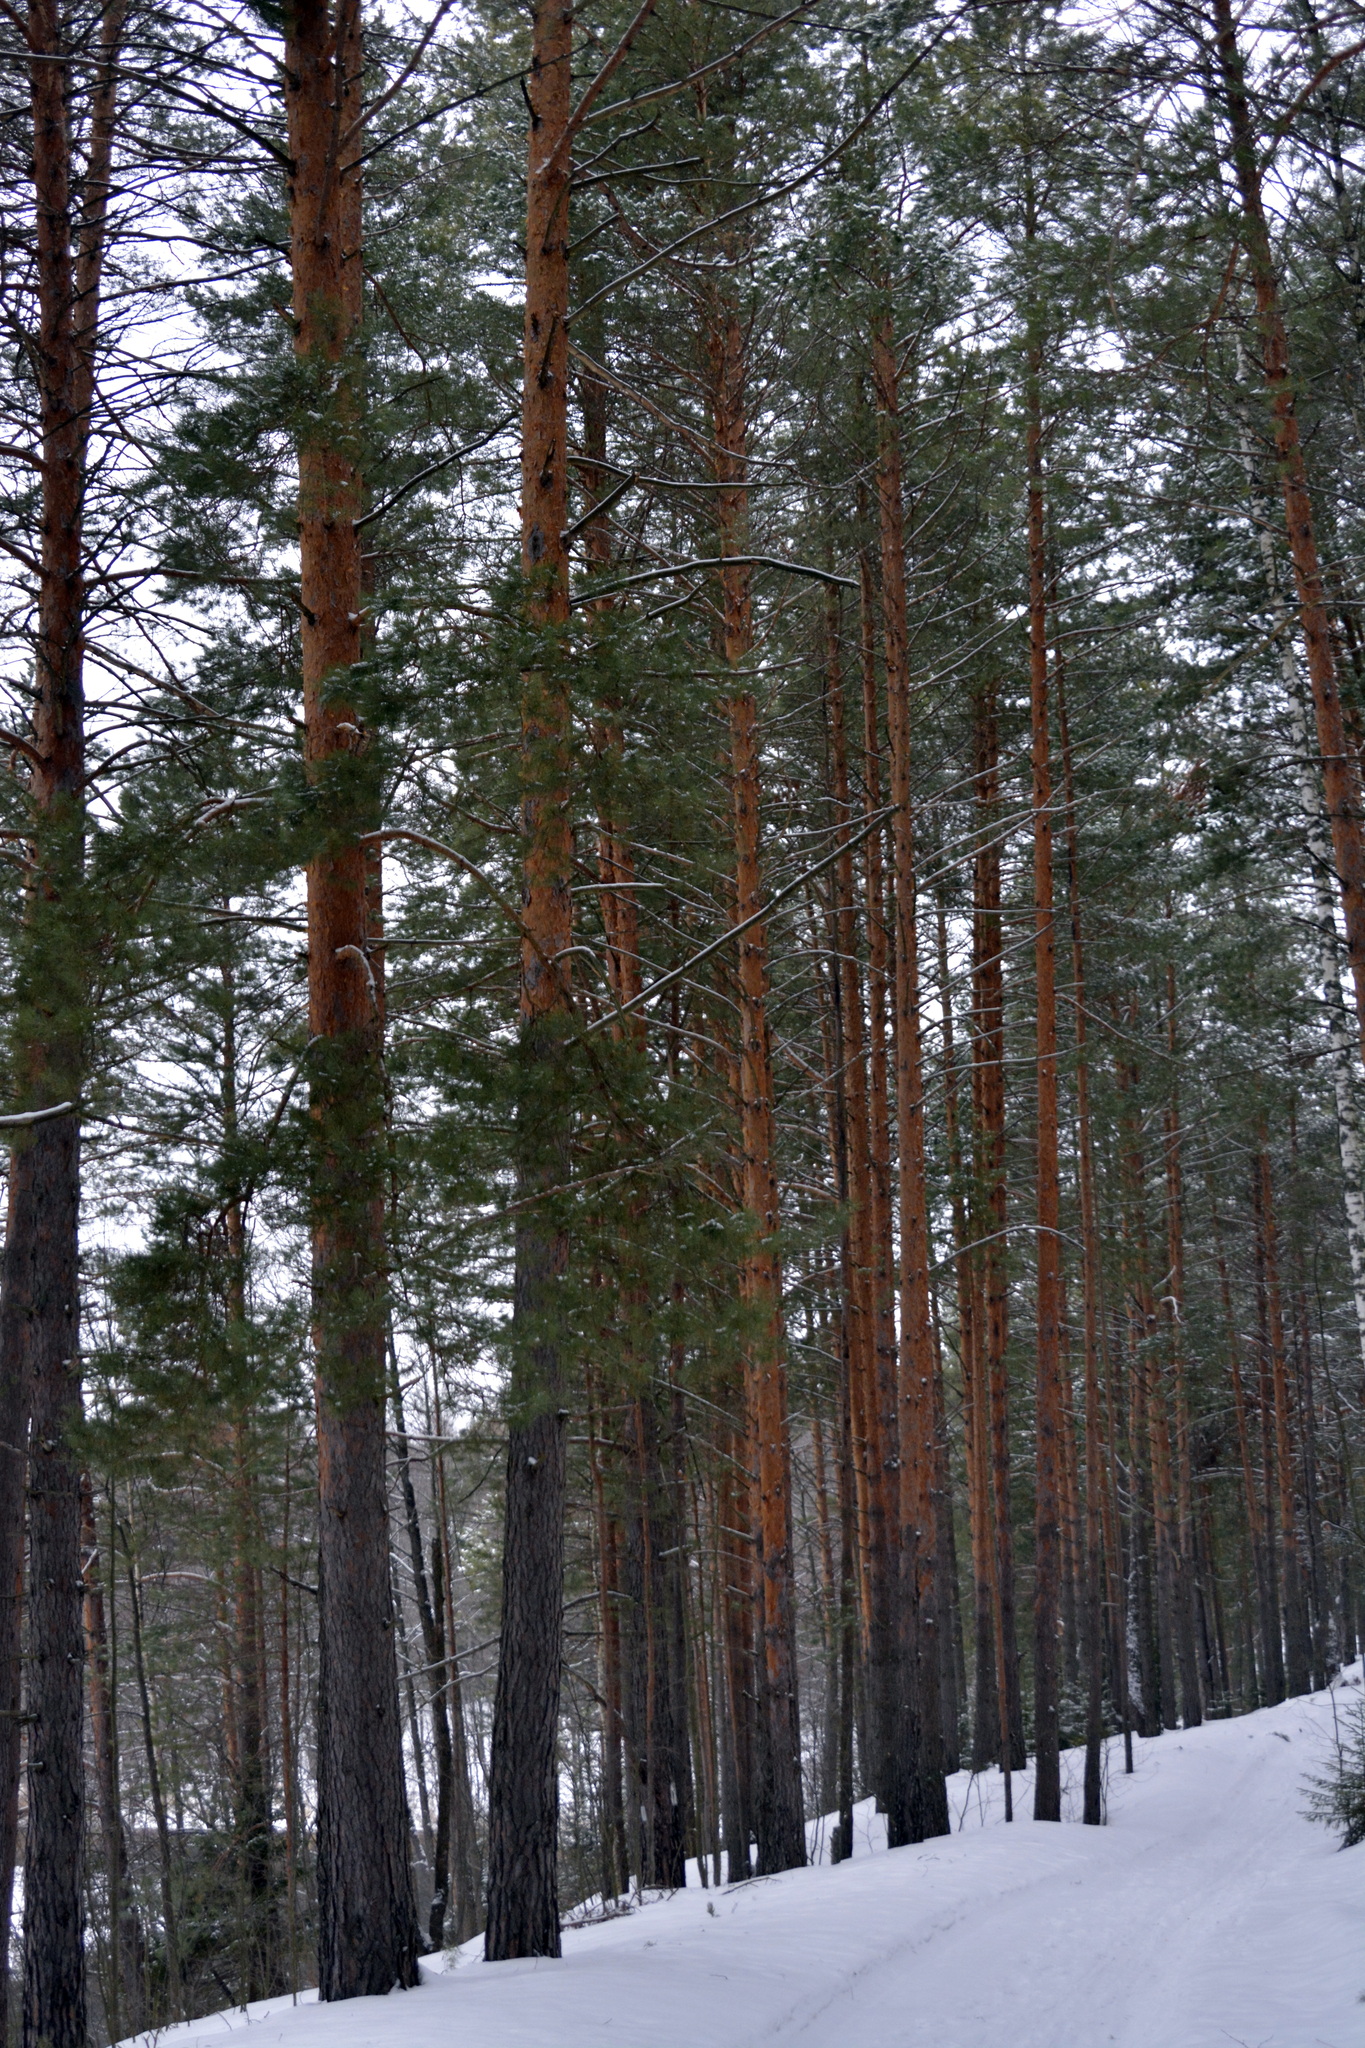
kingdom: Plantae
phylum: Tracheophyta
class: Pinopsida
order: Pinales
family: Pinaceae
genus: Pinus
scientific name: Pinus sylvestris
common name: Scots pine
